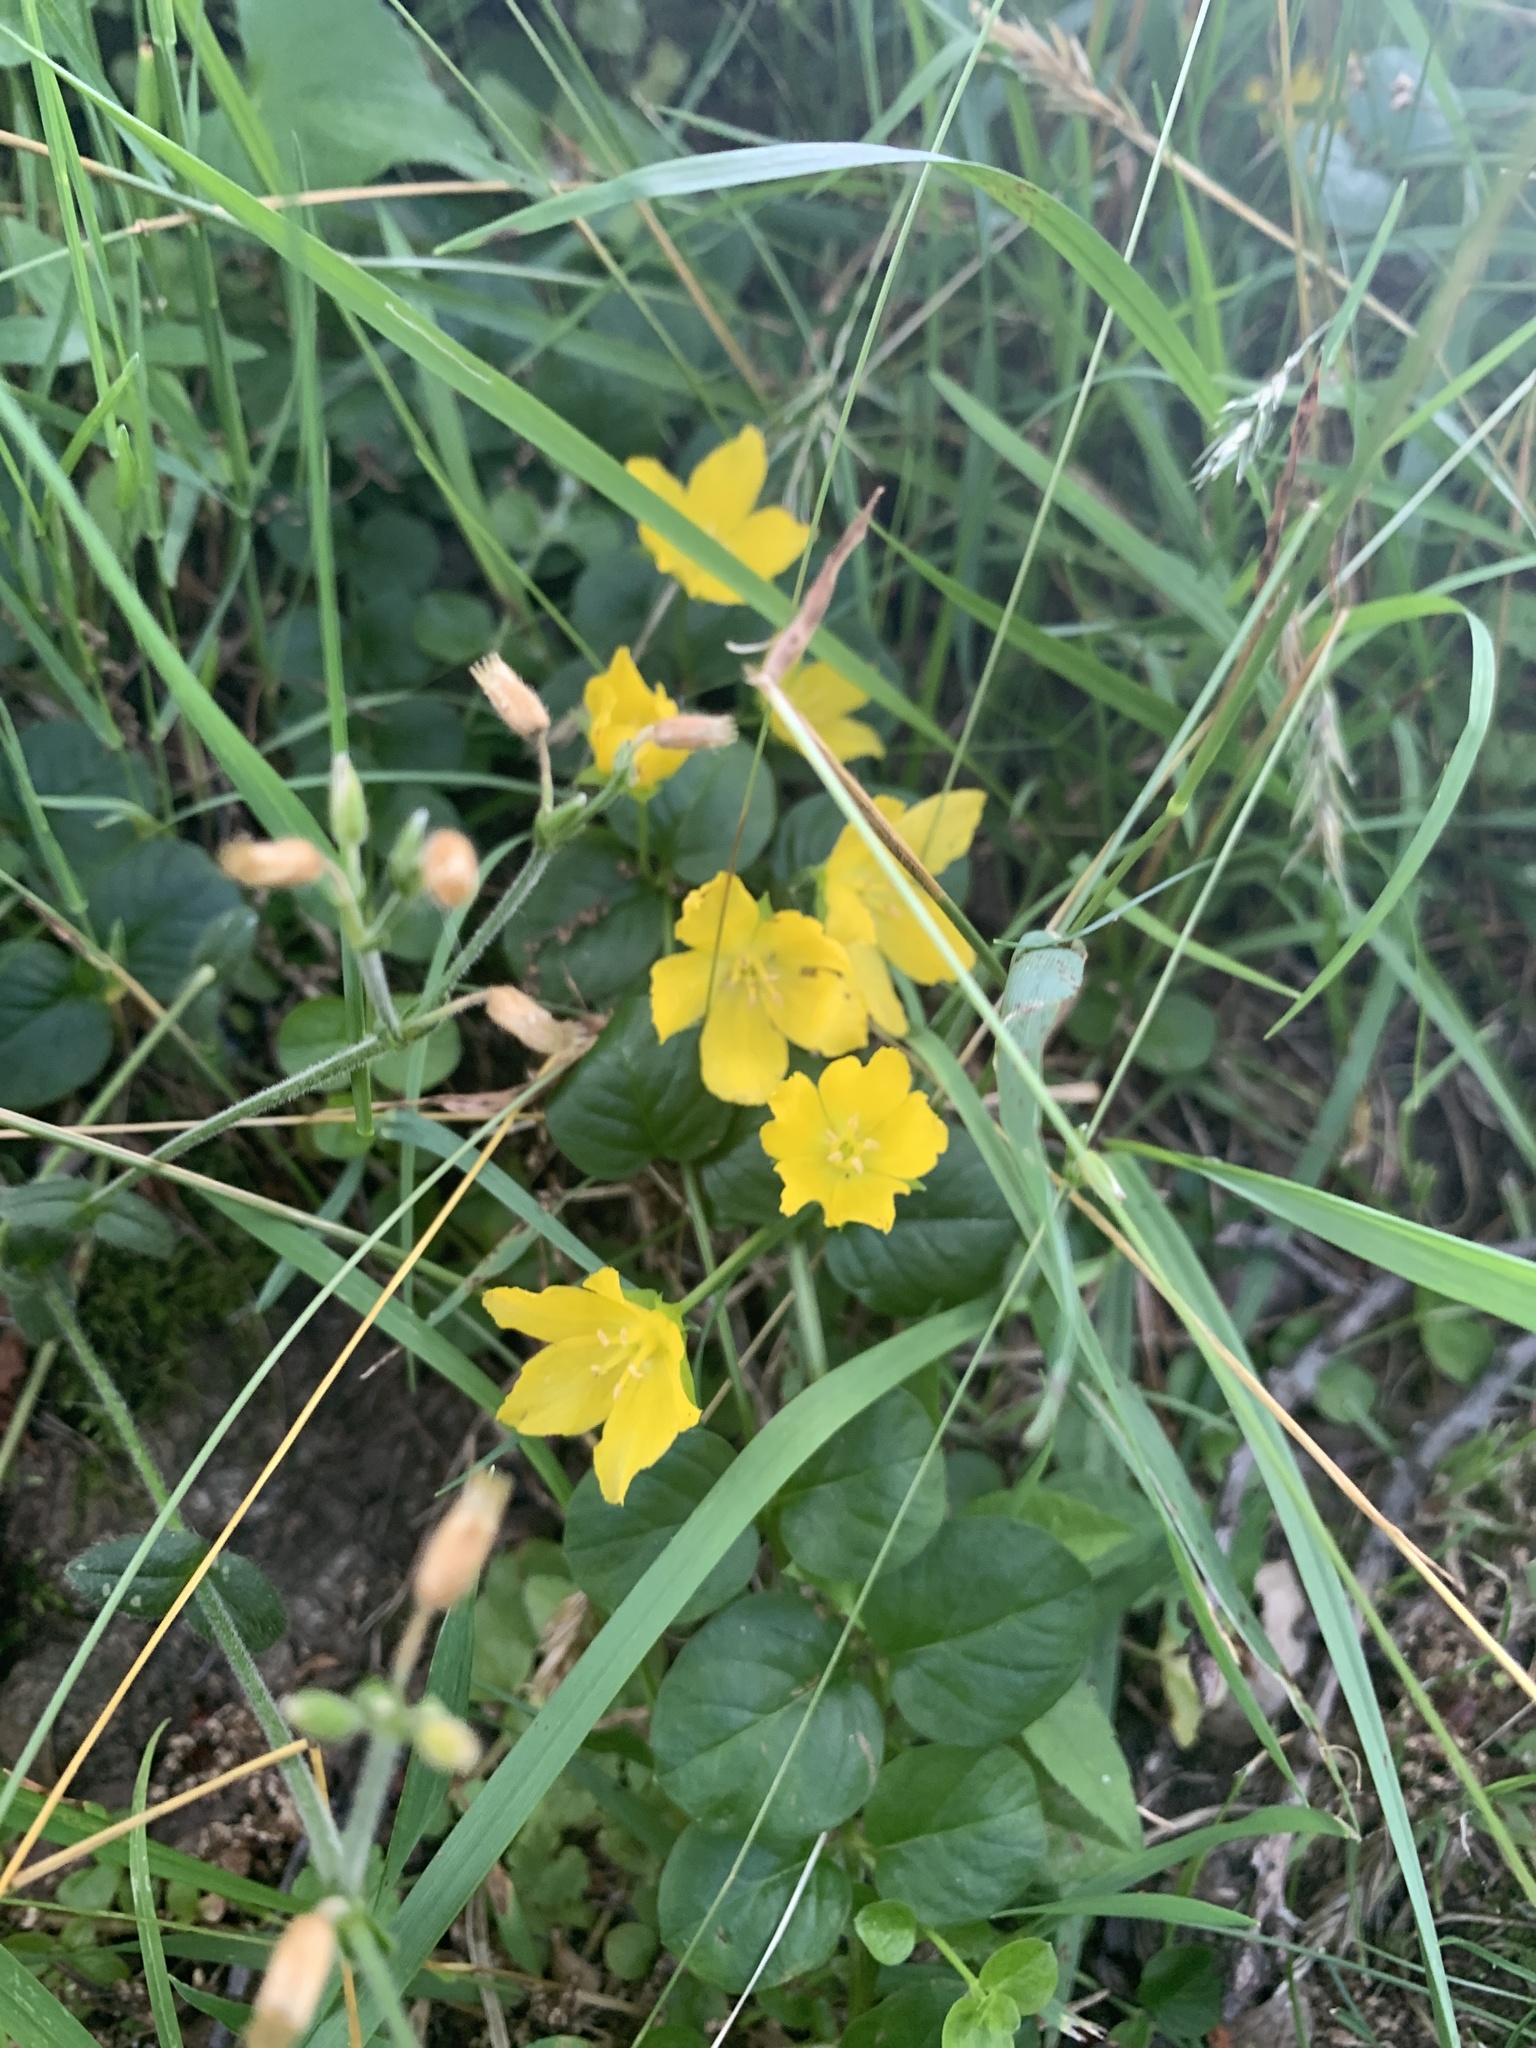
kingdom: Plantae
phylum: Tracheophyta
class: Magnoliopsida
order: Ericales
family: Primulaceae
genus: Lysimachia
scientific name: Lysimachia nummularia
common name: Moneywort
